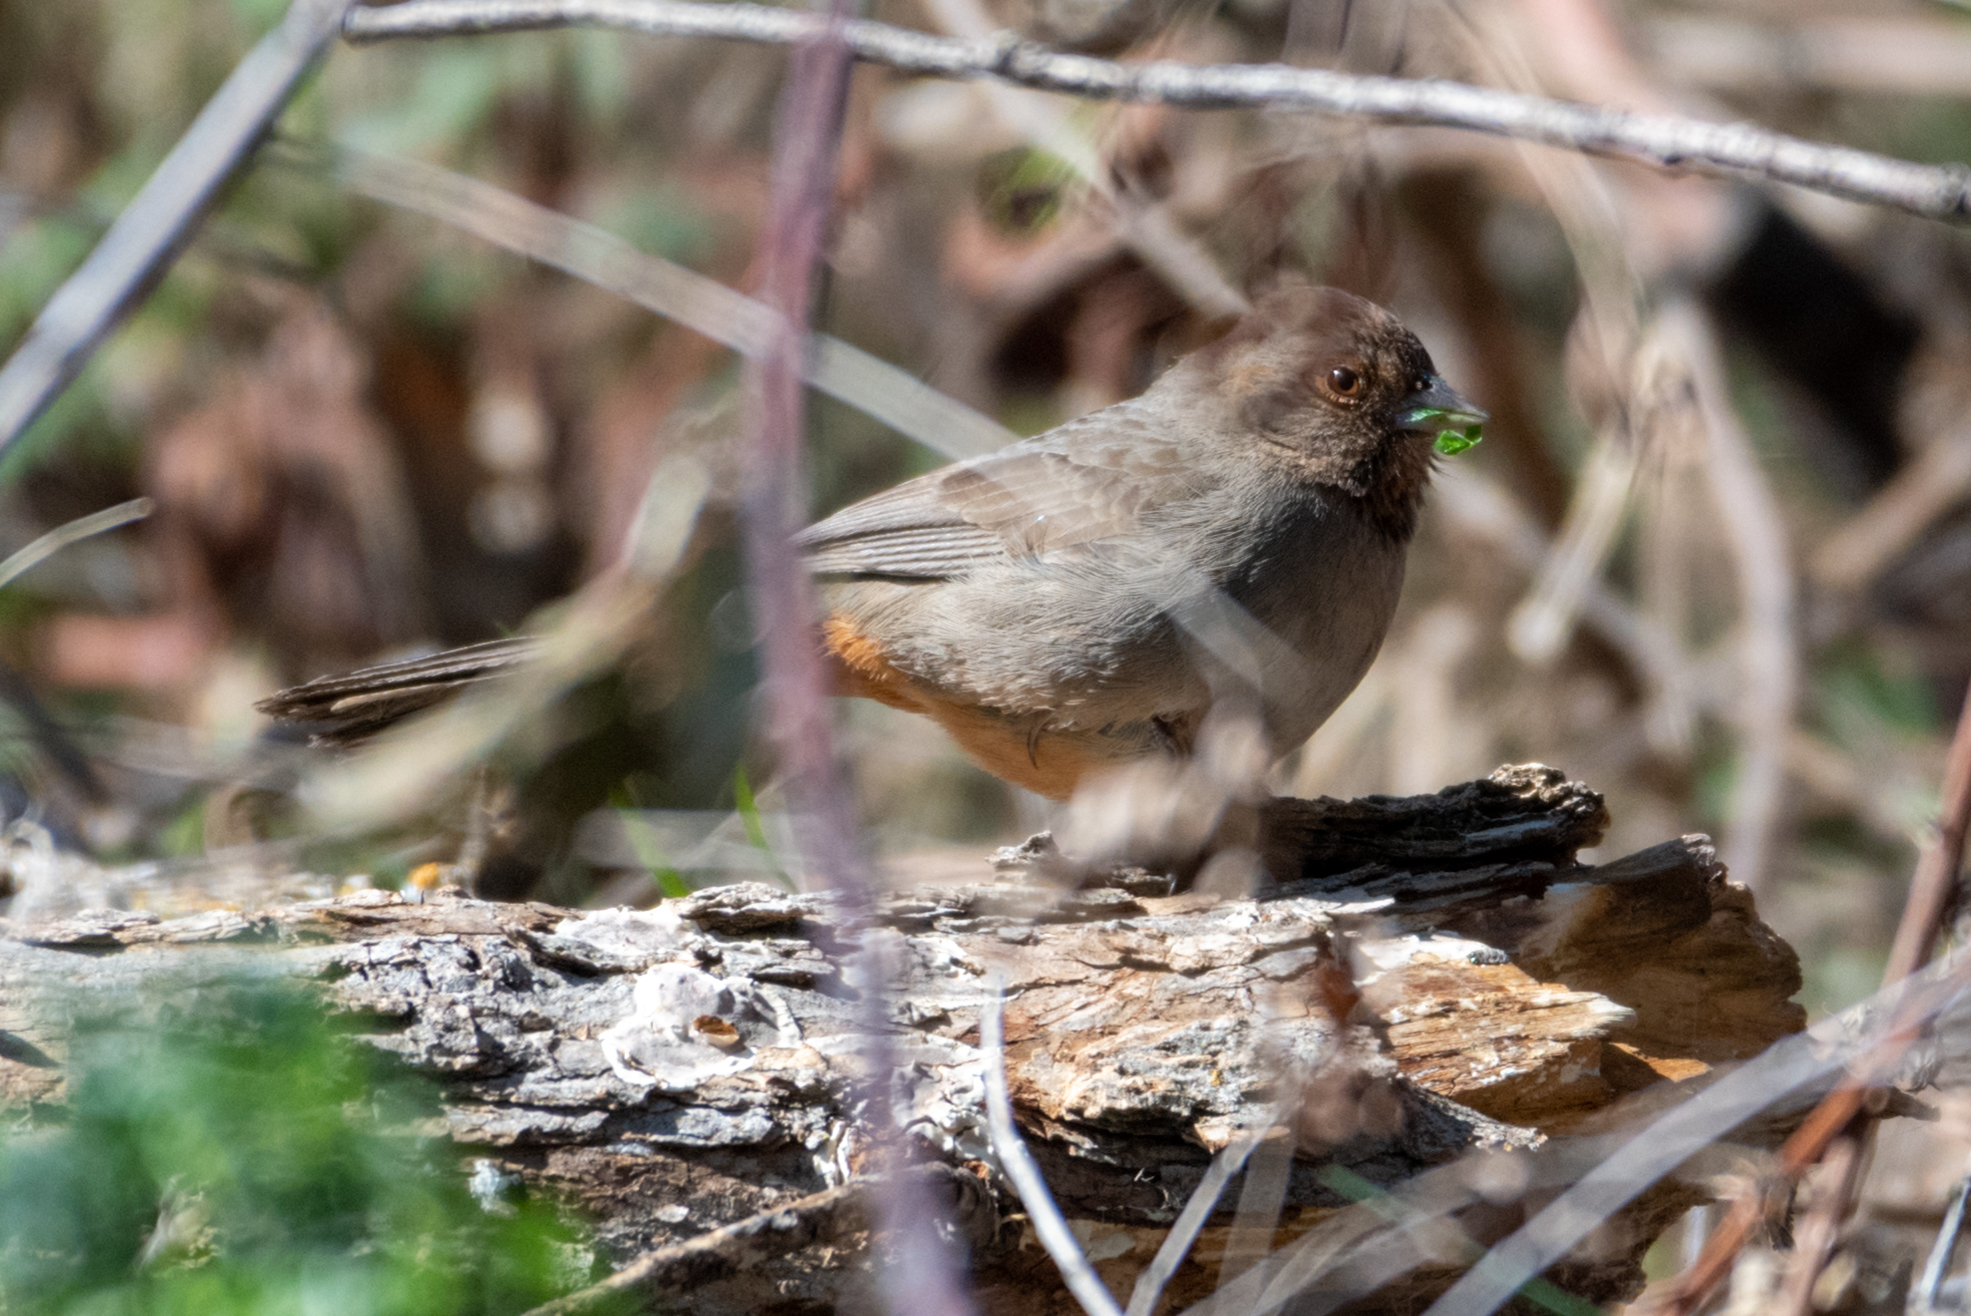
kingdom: Animalia
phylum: Chordata
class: Aves
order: Passeriformes
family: Passerellidae
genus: Melozone
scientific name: Melozone crissalis
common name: California towhee
